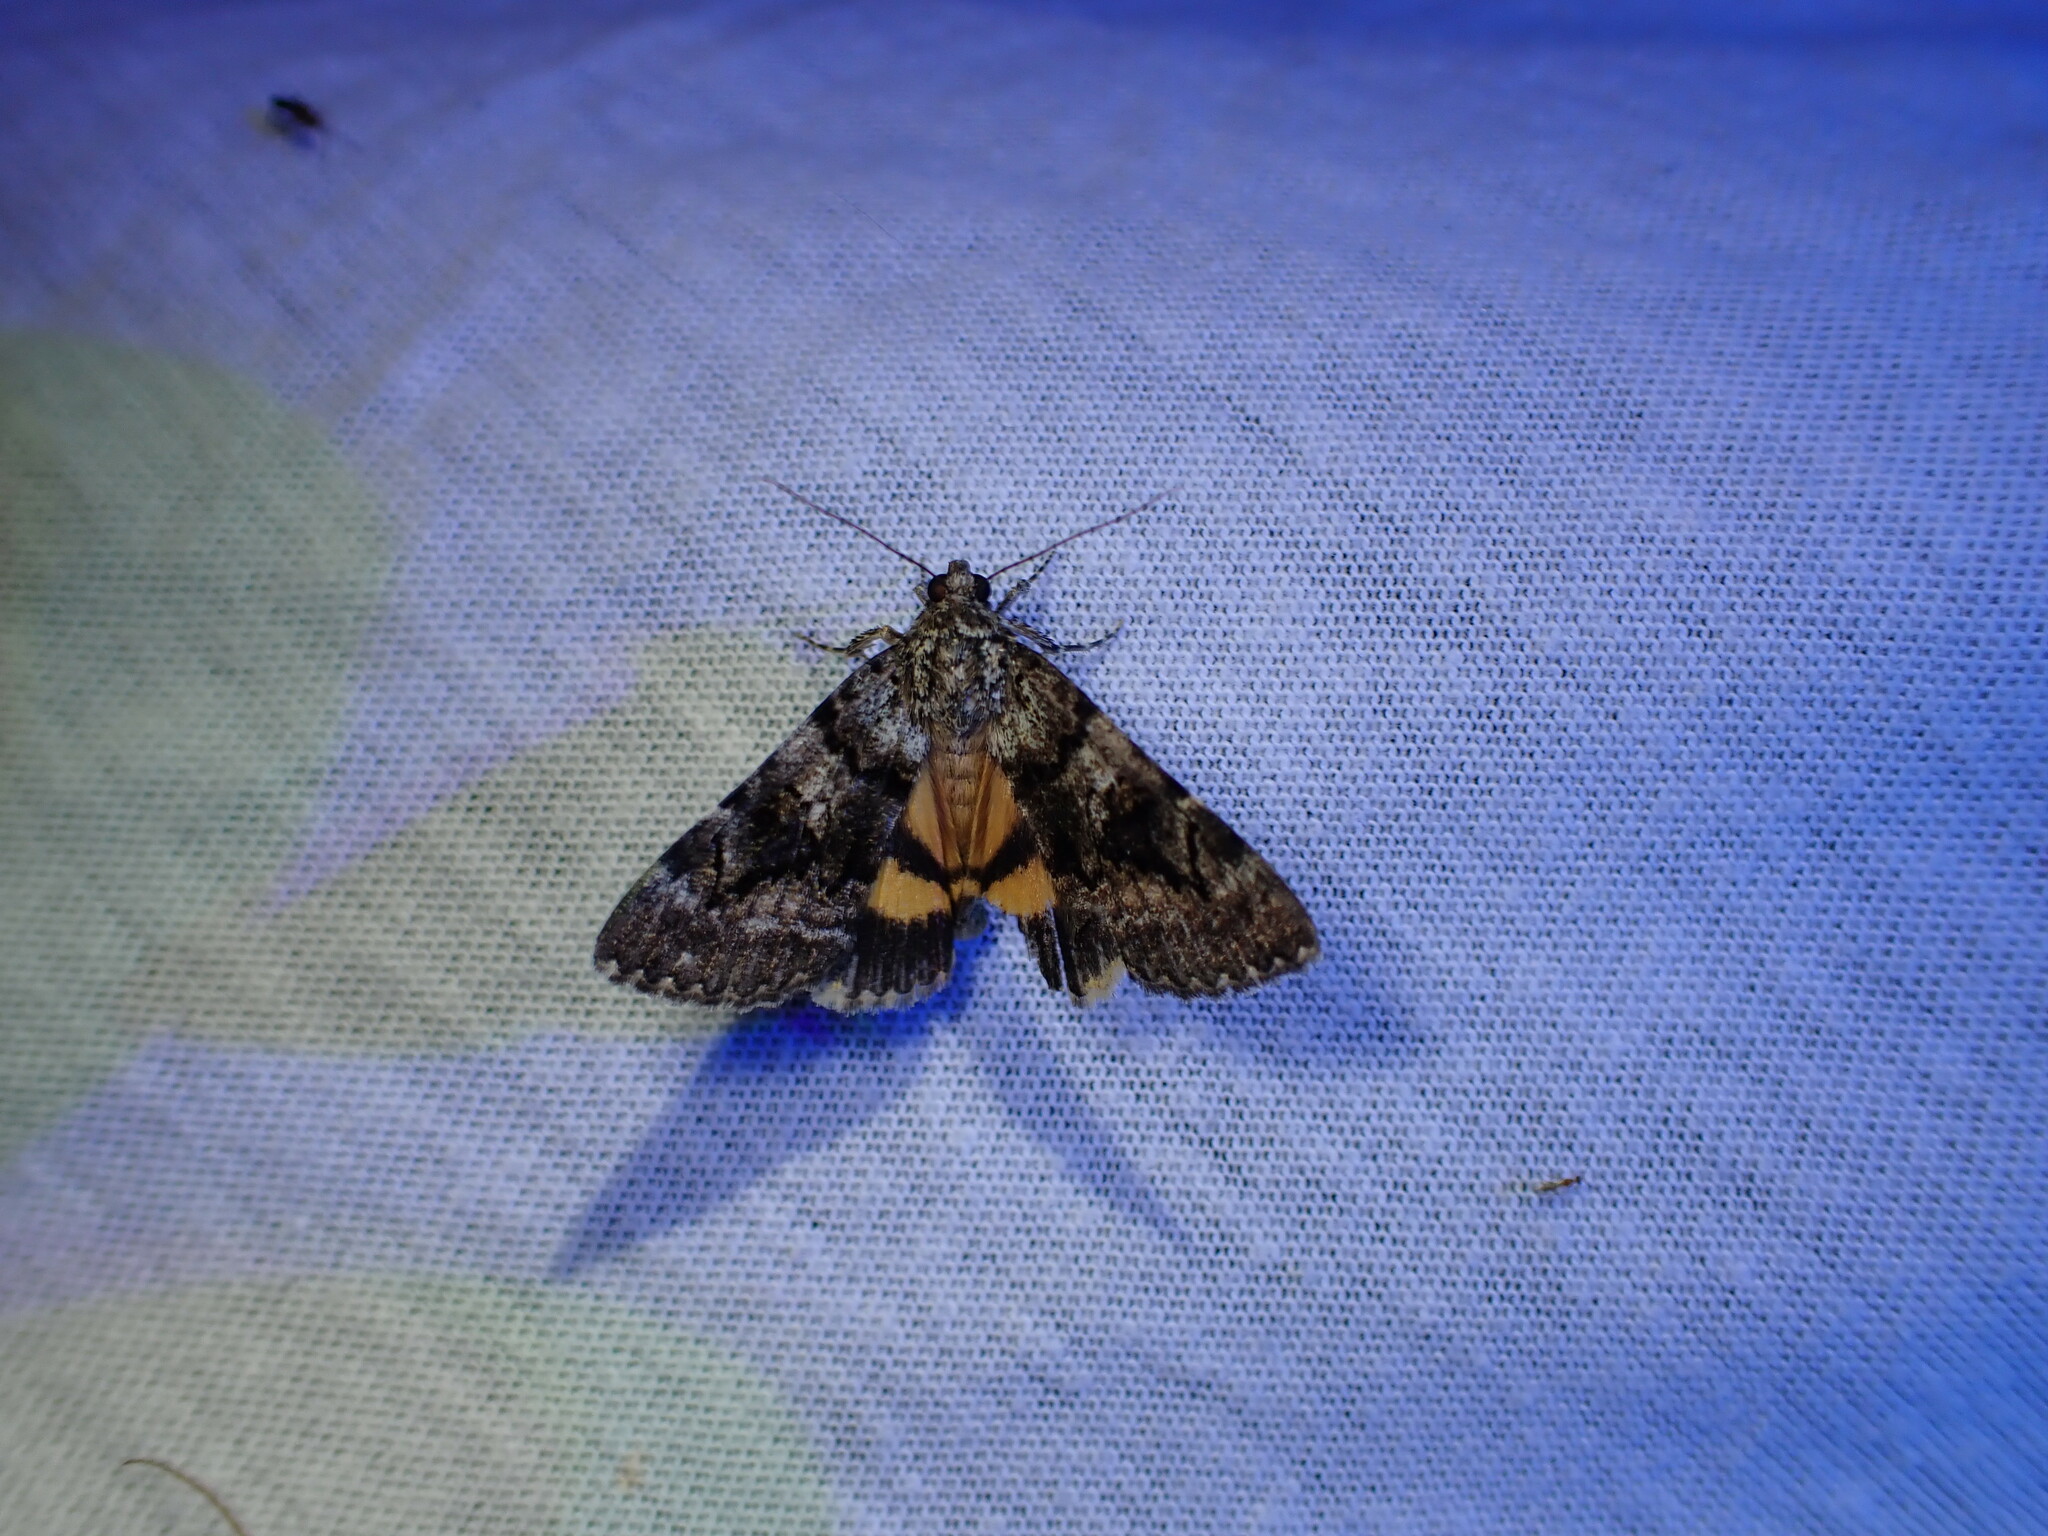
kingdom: Animalia
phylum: Arthropoda
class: Insecta
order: Lepidoptera
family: Erebidae
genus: Catocala
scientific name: Catocala nymphagoga
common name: Oak yellow underwing
